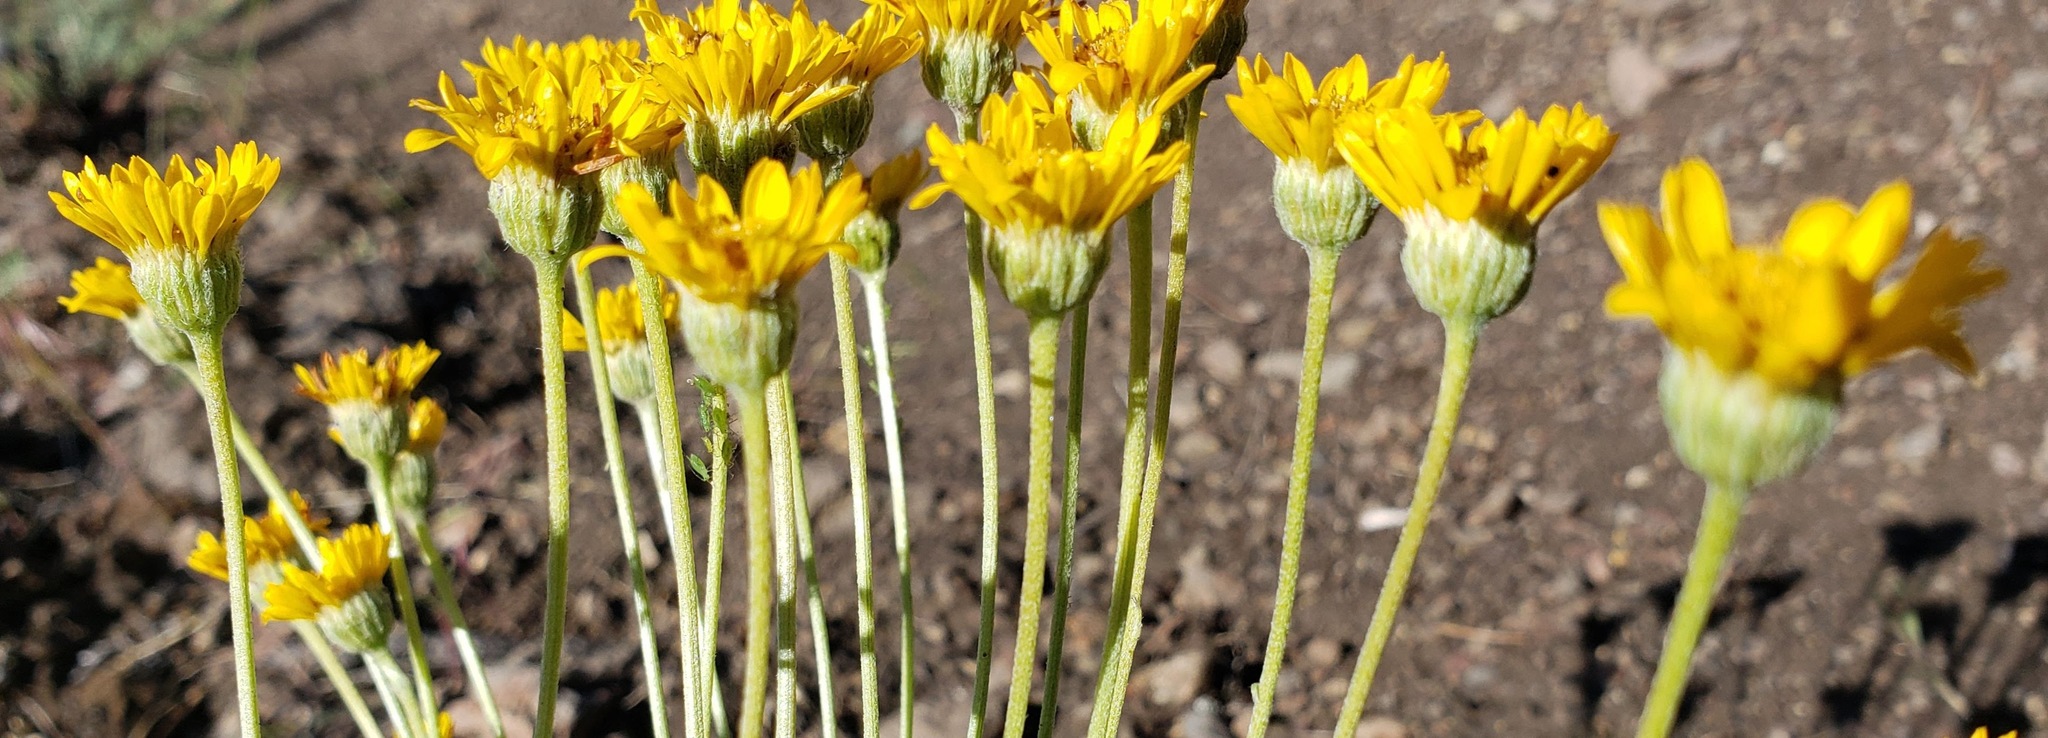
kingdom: Plantae
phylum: Tracheophyta
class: Magnoliopsida
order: Asterales
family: Asteraceae
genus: Erigeron
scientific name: Erigeron linearis
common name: Desert yellow fleabane
